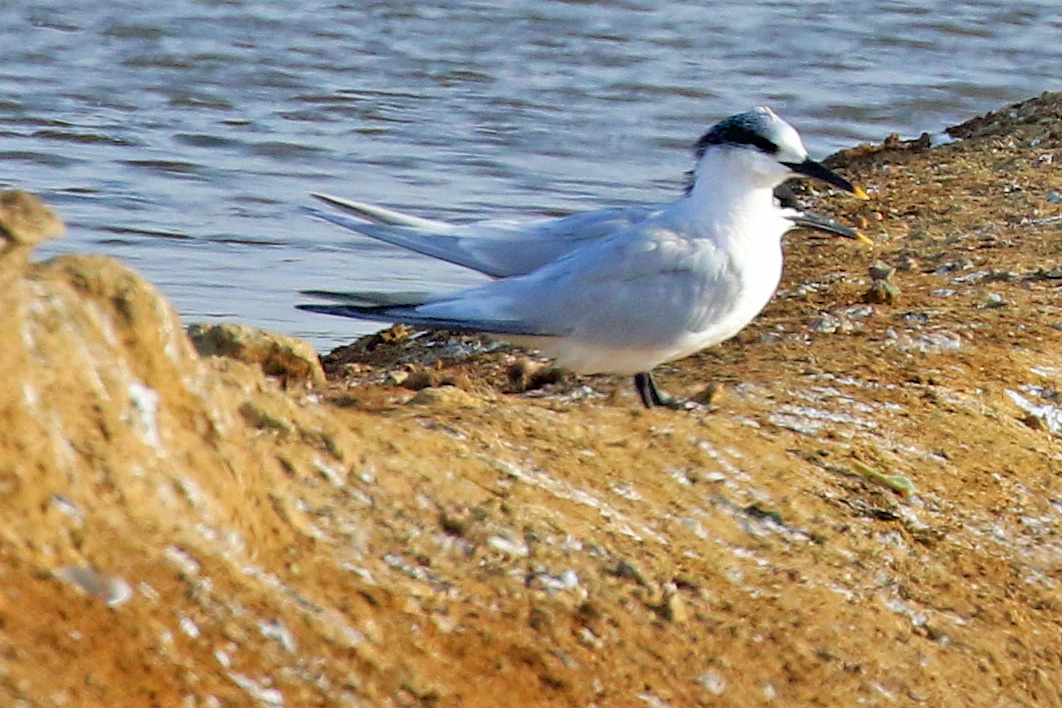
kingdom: Animalia
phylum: Chordata
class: Aves
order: Charadriiformes
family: Laridae
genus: Thalasseus
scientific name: Thalasseus sandvicensis
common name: Sandwich tern
